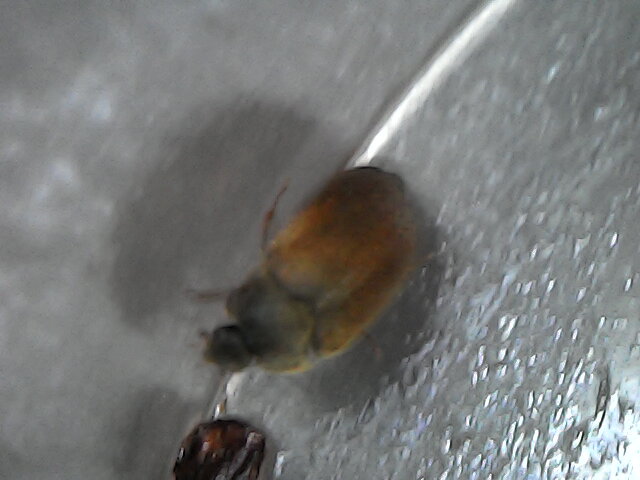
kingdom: Animalia
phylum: Arthropoda
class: Insecta
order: Coleoptera
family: Dermestidae
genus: Attagenus
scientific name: Attagenus smirnovi
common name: Brown carpet beetle
